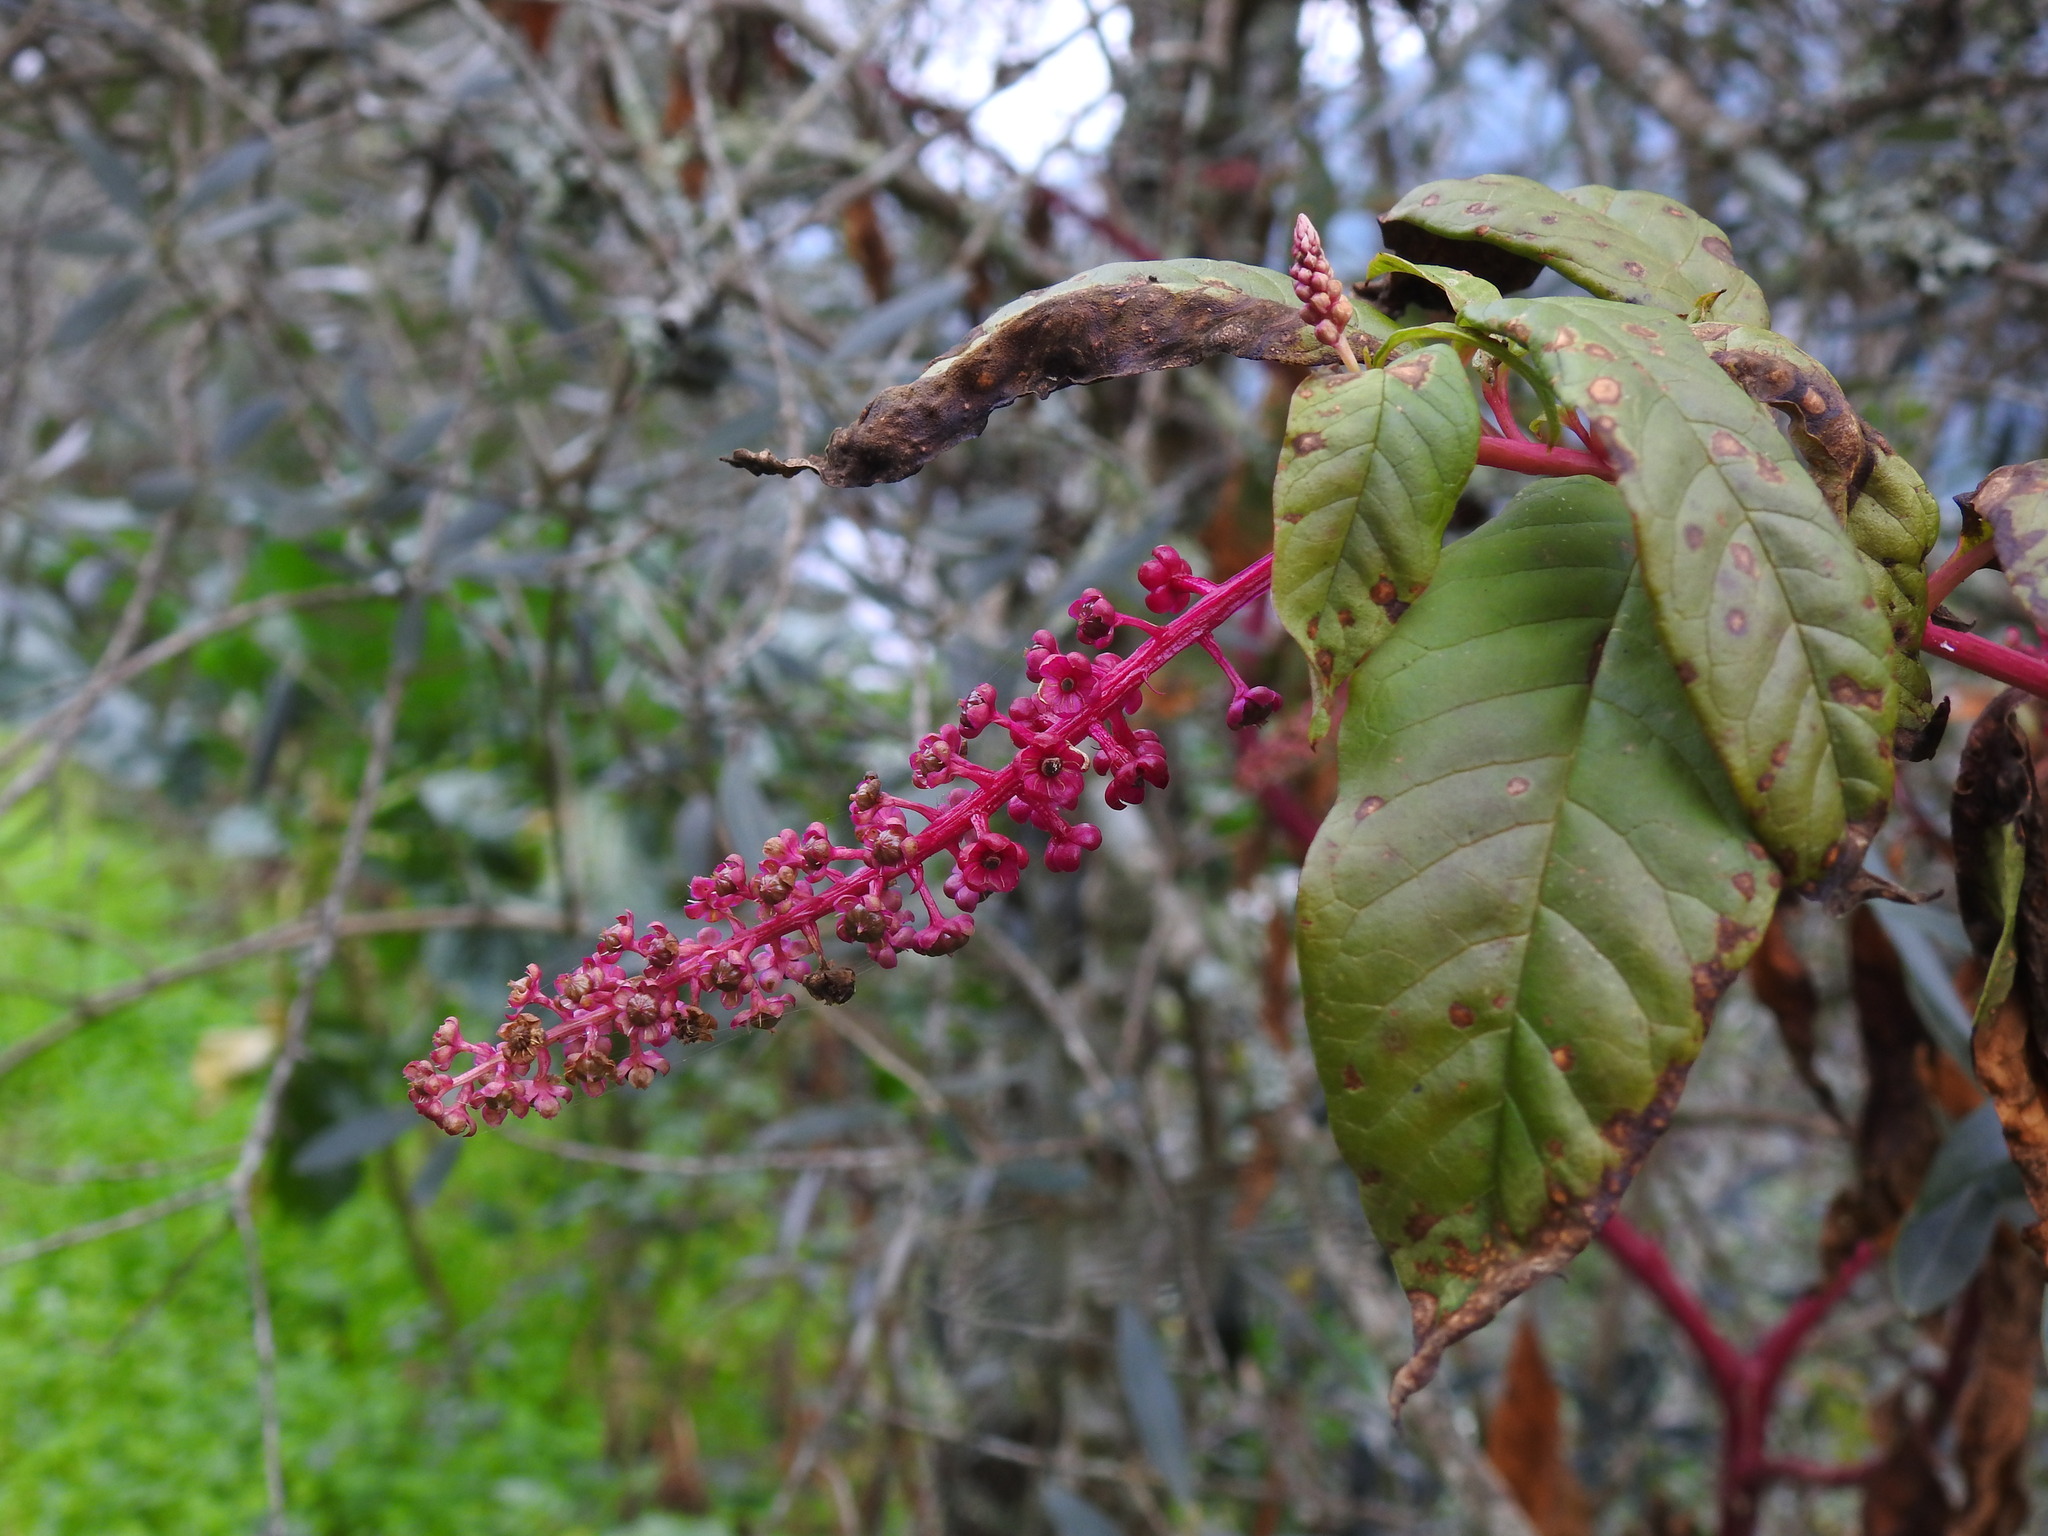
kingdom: Plantae
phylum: Tracheophyta
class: Magnoliopsida
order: Caryophyllales
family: Phytolaccaceae
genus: Phytolacca
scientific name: Phytolacca americana
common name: American pokeweed
